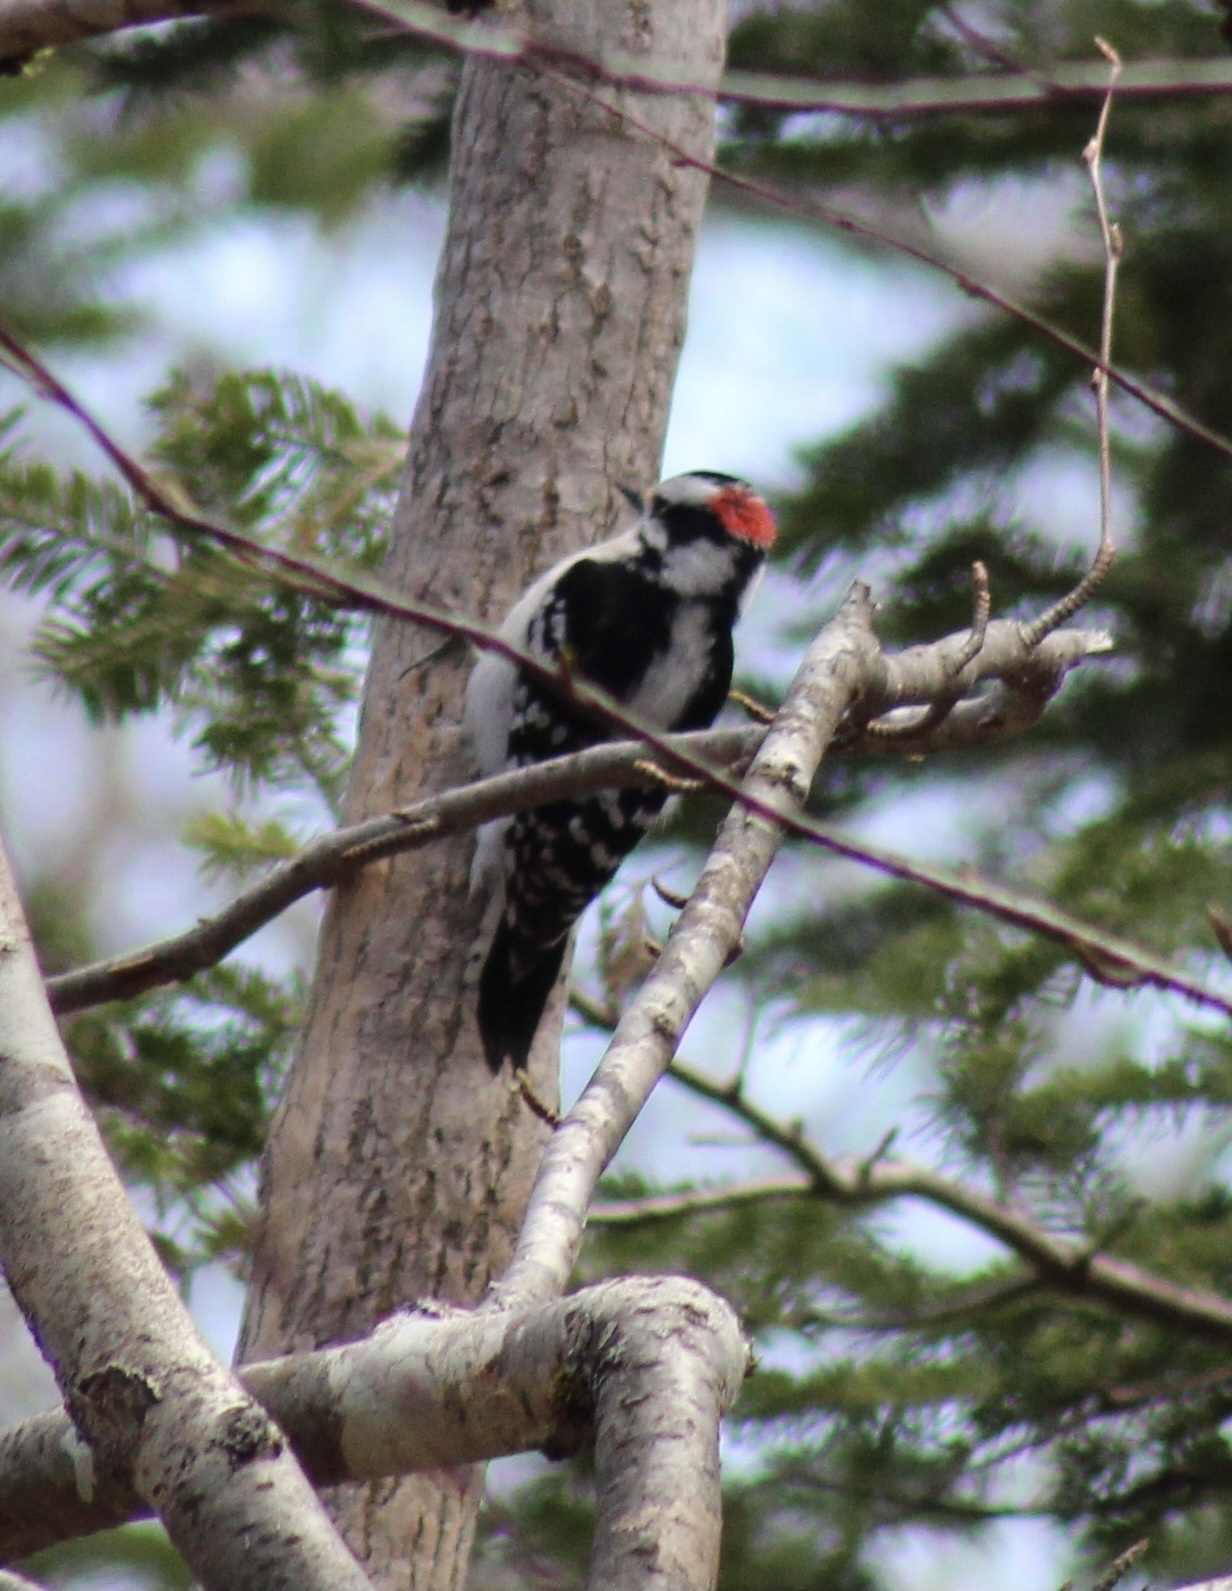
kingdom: Animalia
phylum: Chordata
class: Aves
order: Piciformes
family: Picidae
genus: Dryobates
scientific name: Dryobates pubescens
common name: Downy woodpecker
